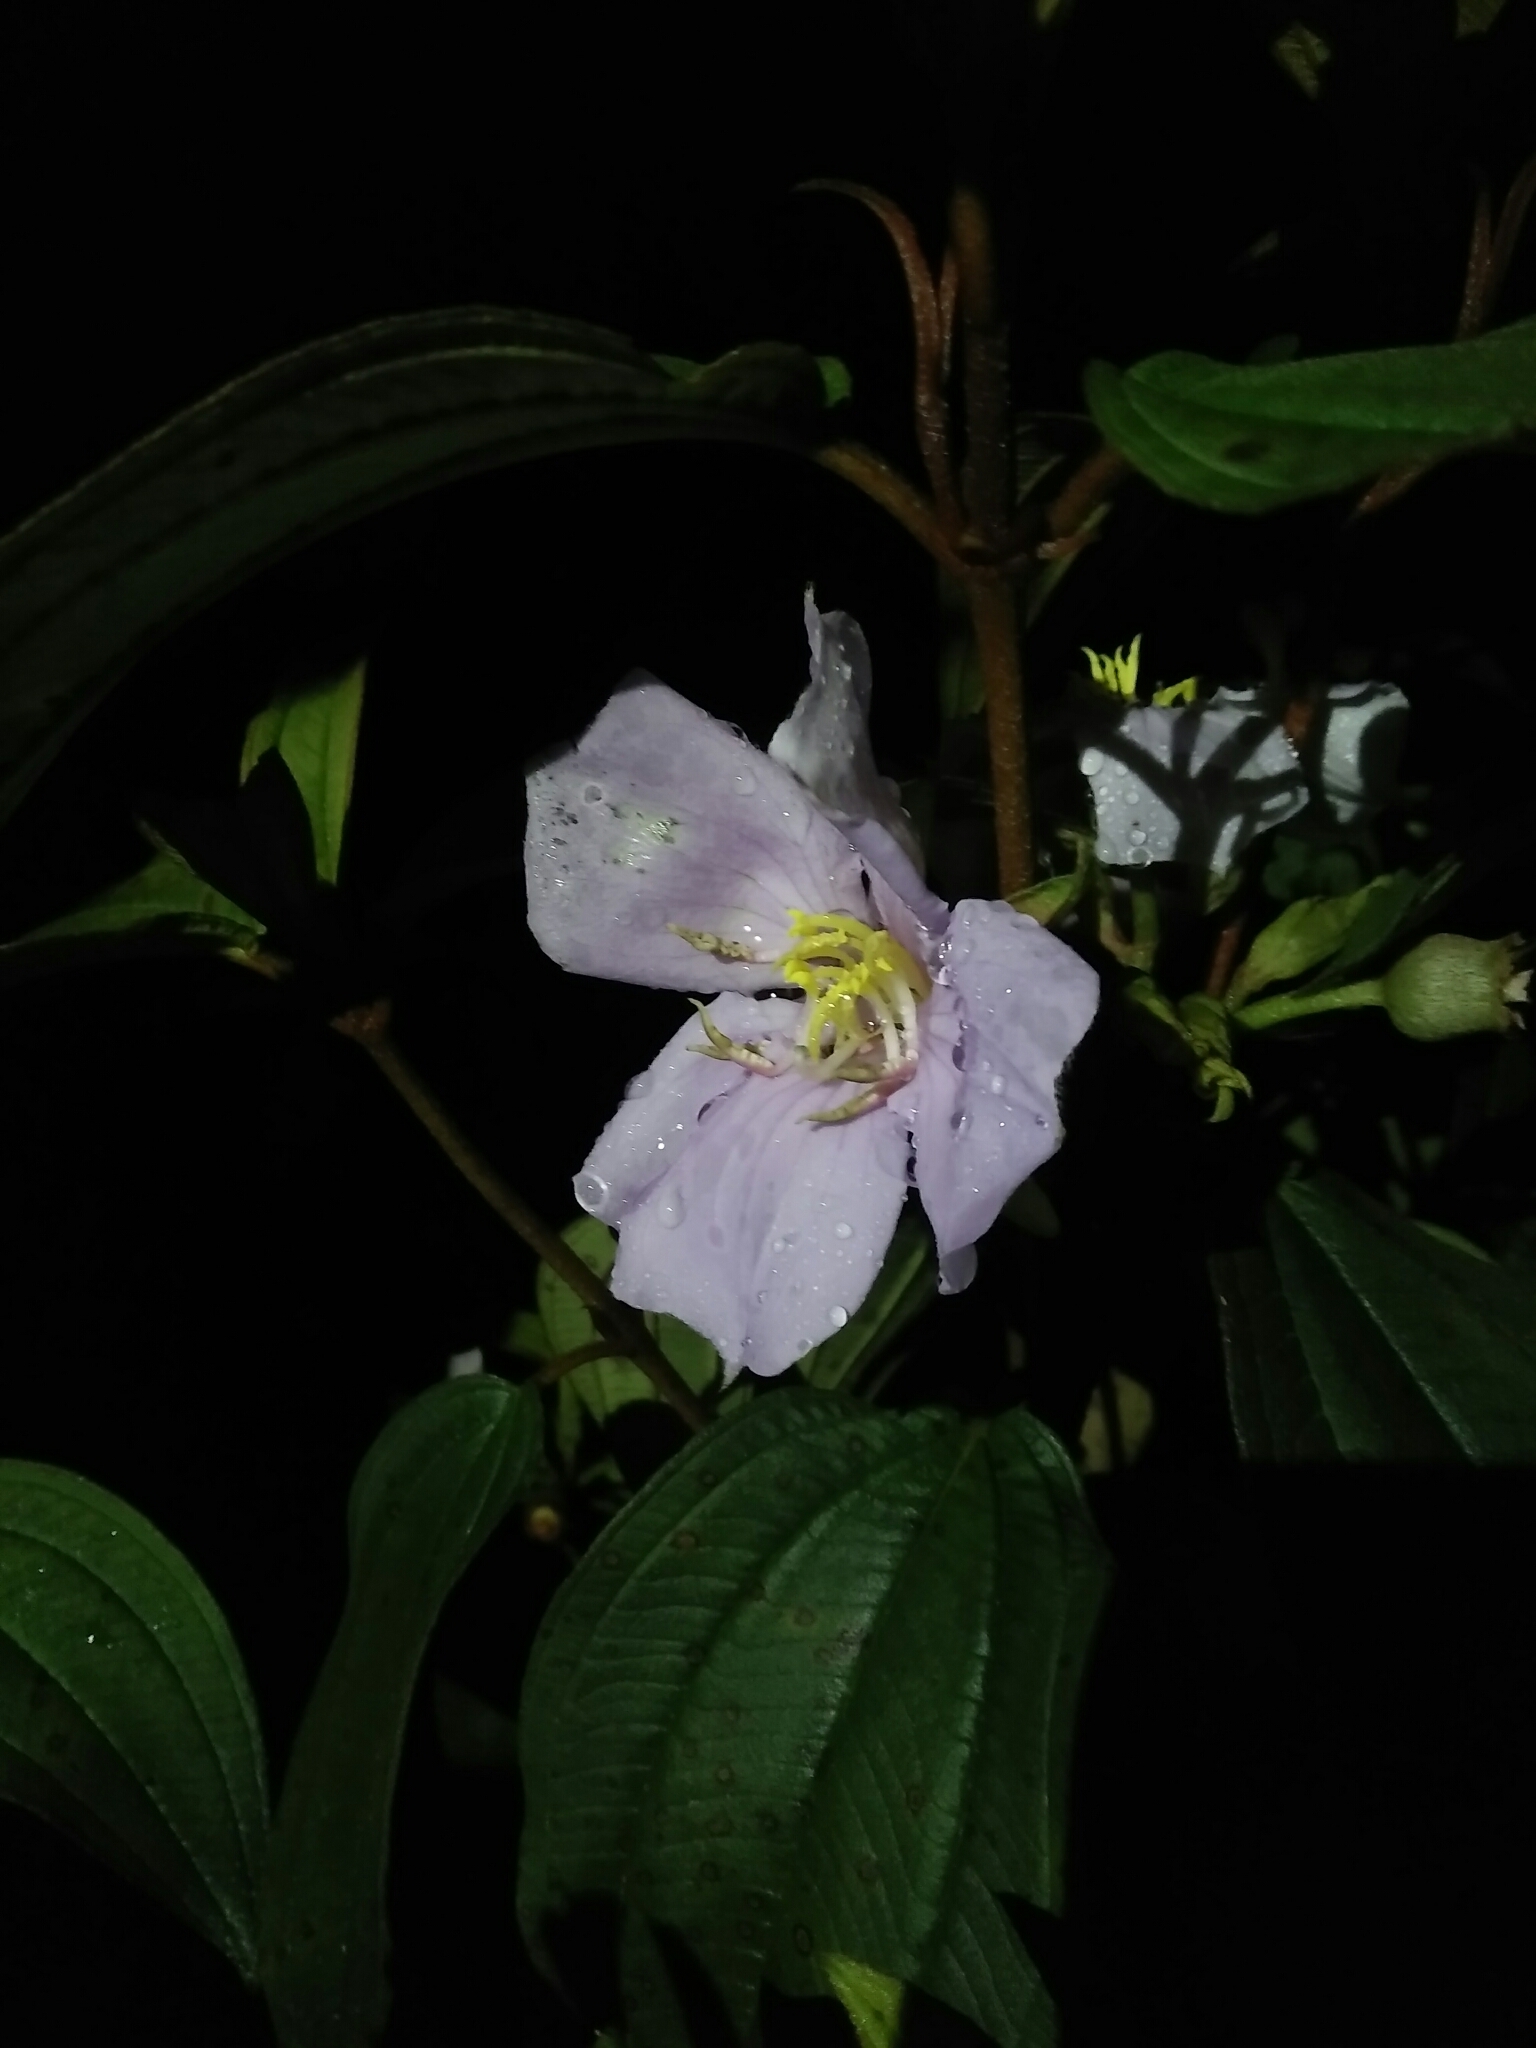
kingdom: Plantae
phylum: Tracheophyta
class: Magnoliopsida
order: Myrtales
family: Melastomataceae
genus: Melastoma
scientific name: Melastoma malabathricum
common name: Indian-rhododendron
